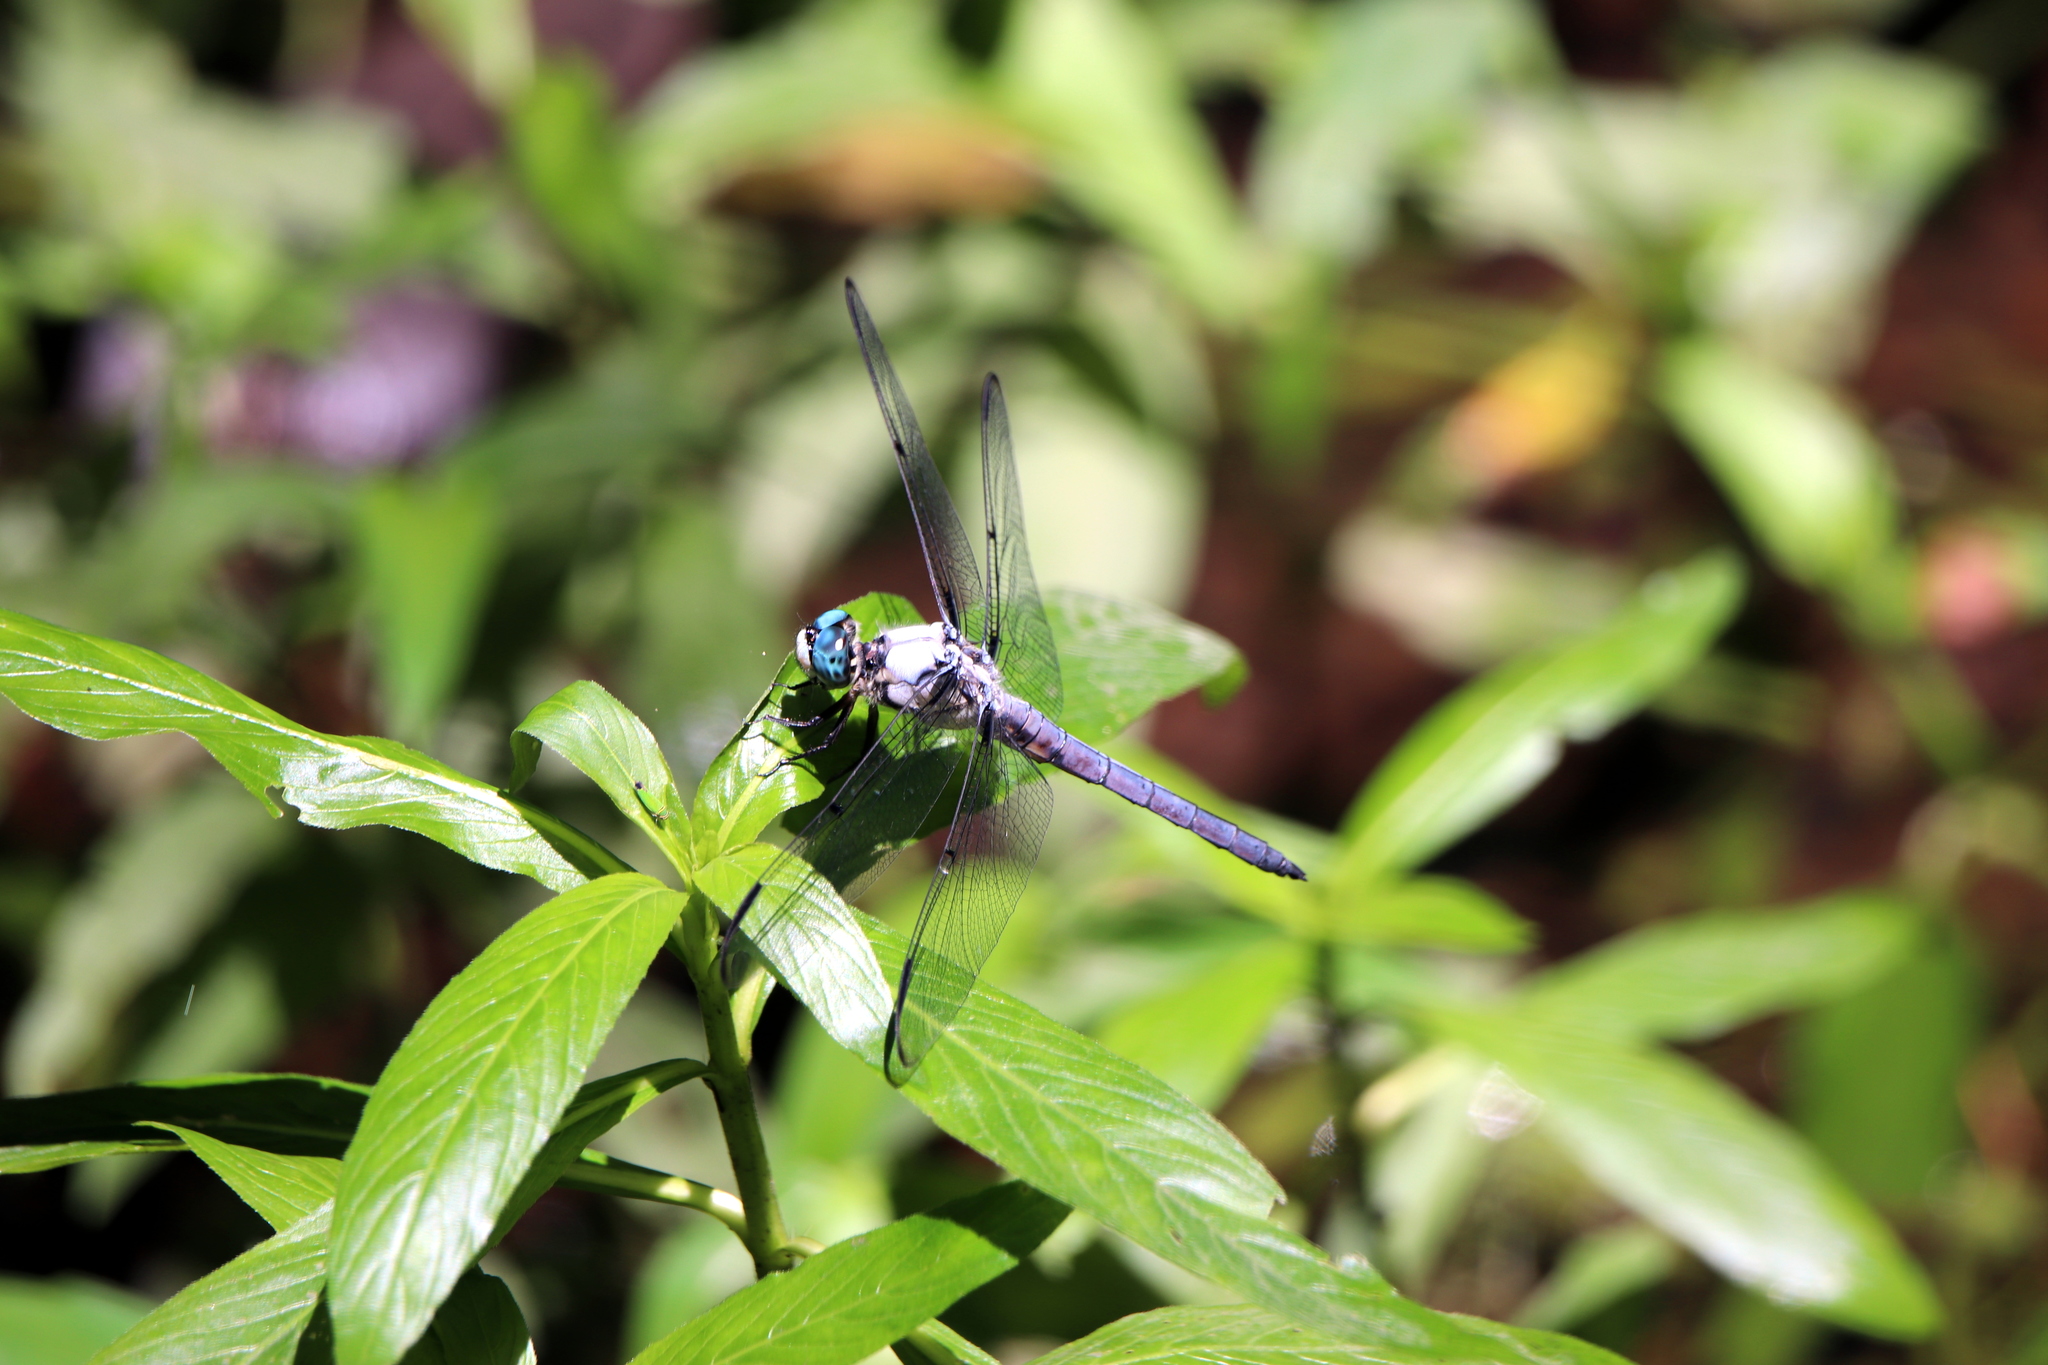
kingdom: Animalia
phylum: Arthropoda
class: Insecta
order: Odonata
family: Libellulidae
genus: Libellula
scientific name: Libellula vibrans
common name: Great blue skimmer
